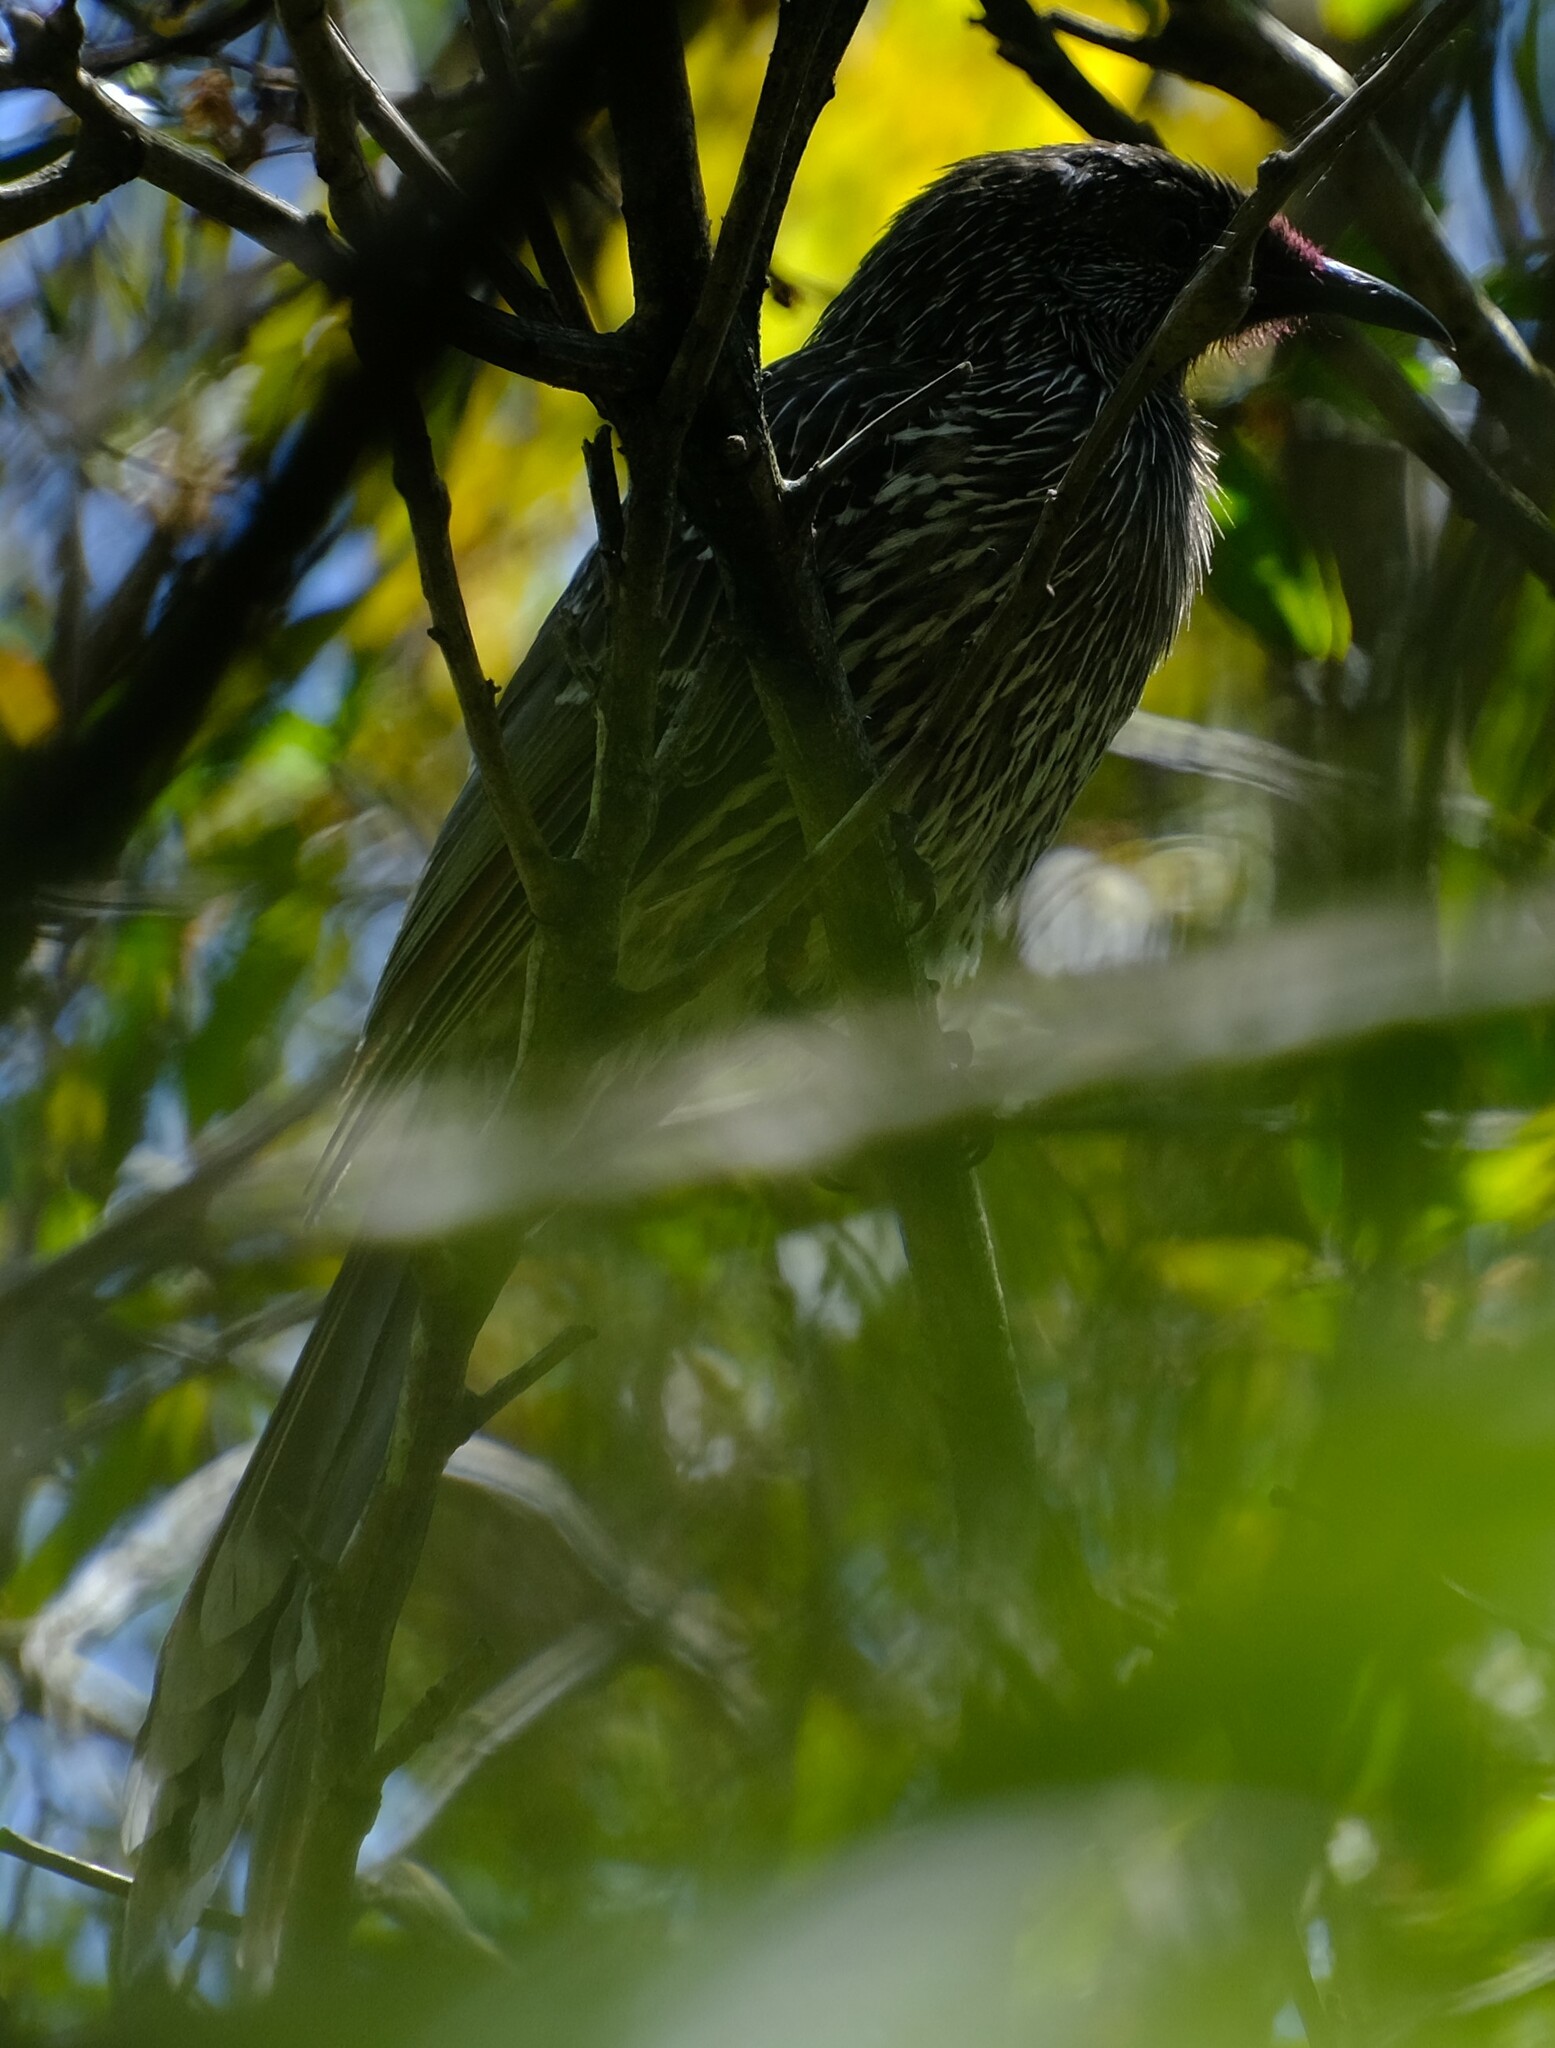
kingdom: Animalia
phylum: Chordata
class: Aves
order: Passeriformes
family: Meliphagidae
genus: Anthochaera
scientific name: Anthochaera chrysoptera
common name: Little wattlebird
